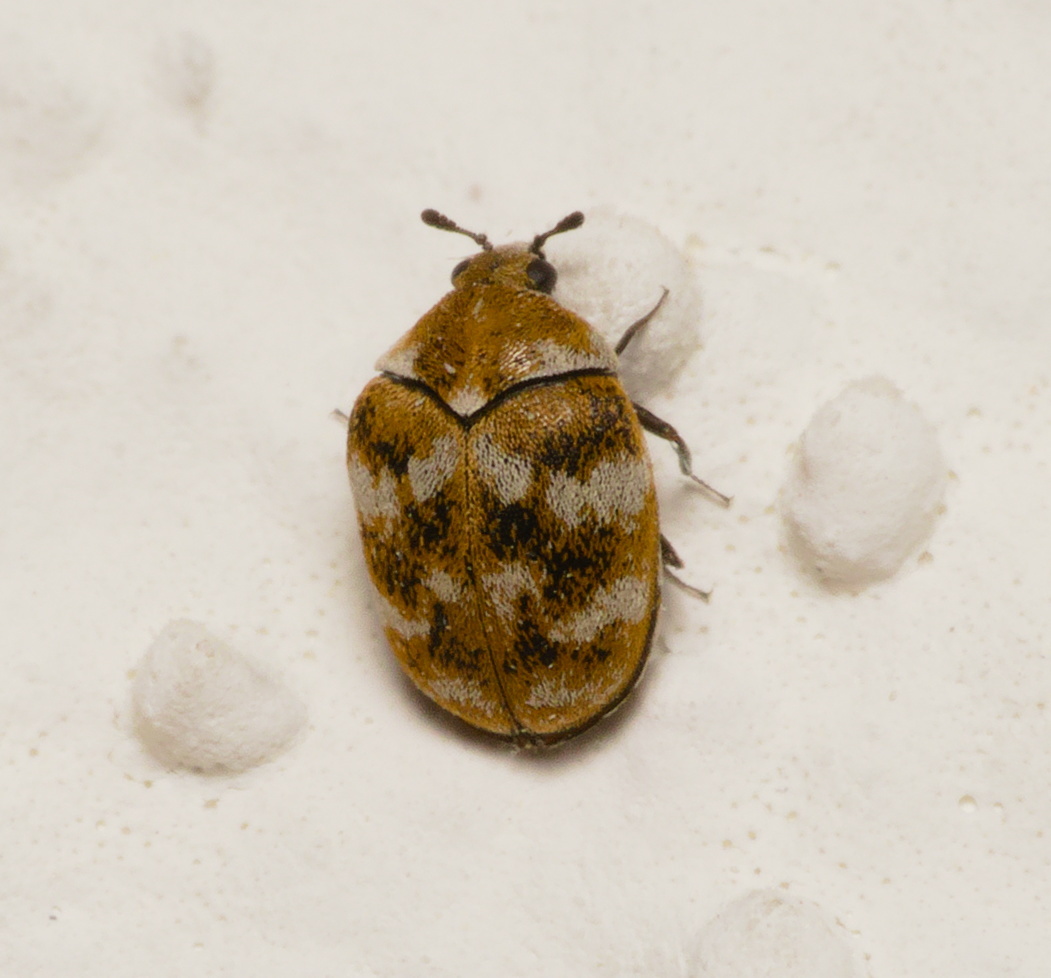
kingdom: Animalia
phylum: Arthropoda
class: Insecta
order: Coleoptera
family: Dermestidae
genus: Anthrenus
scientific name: Anthrenus verbasci
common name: Varied carpet beetle
